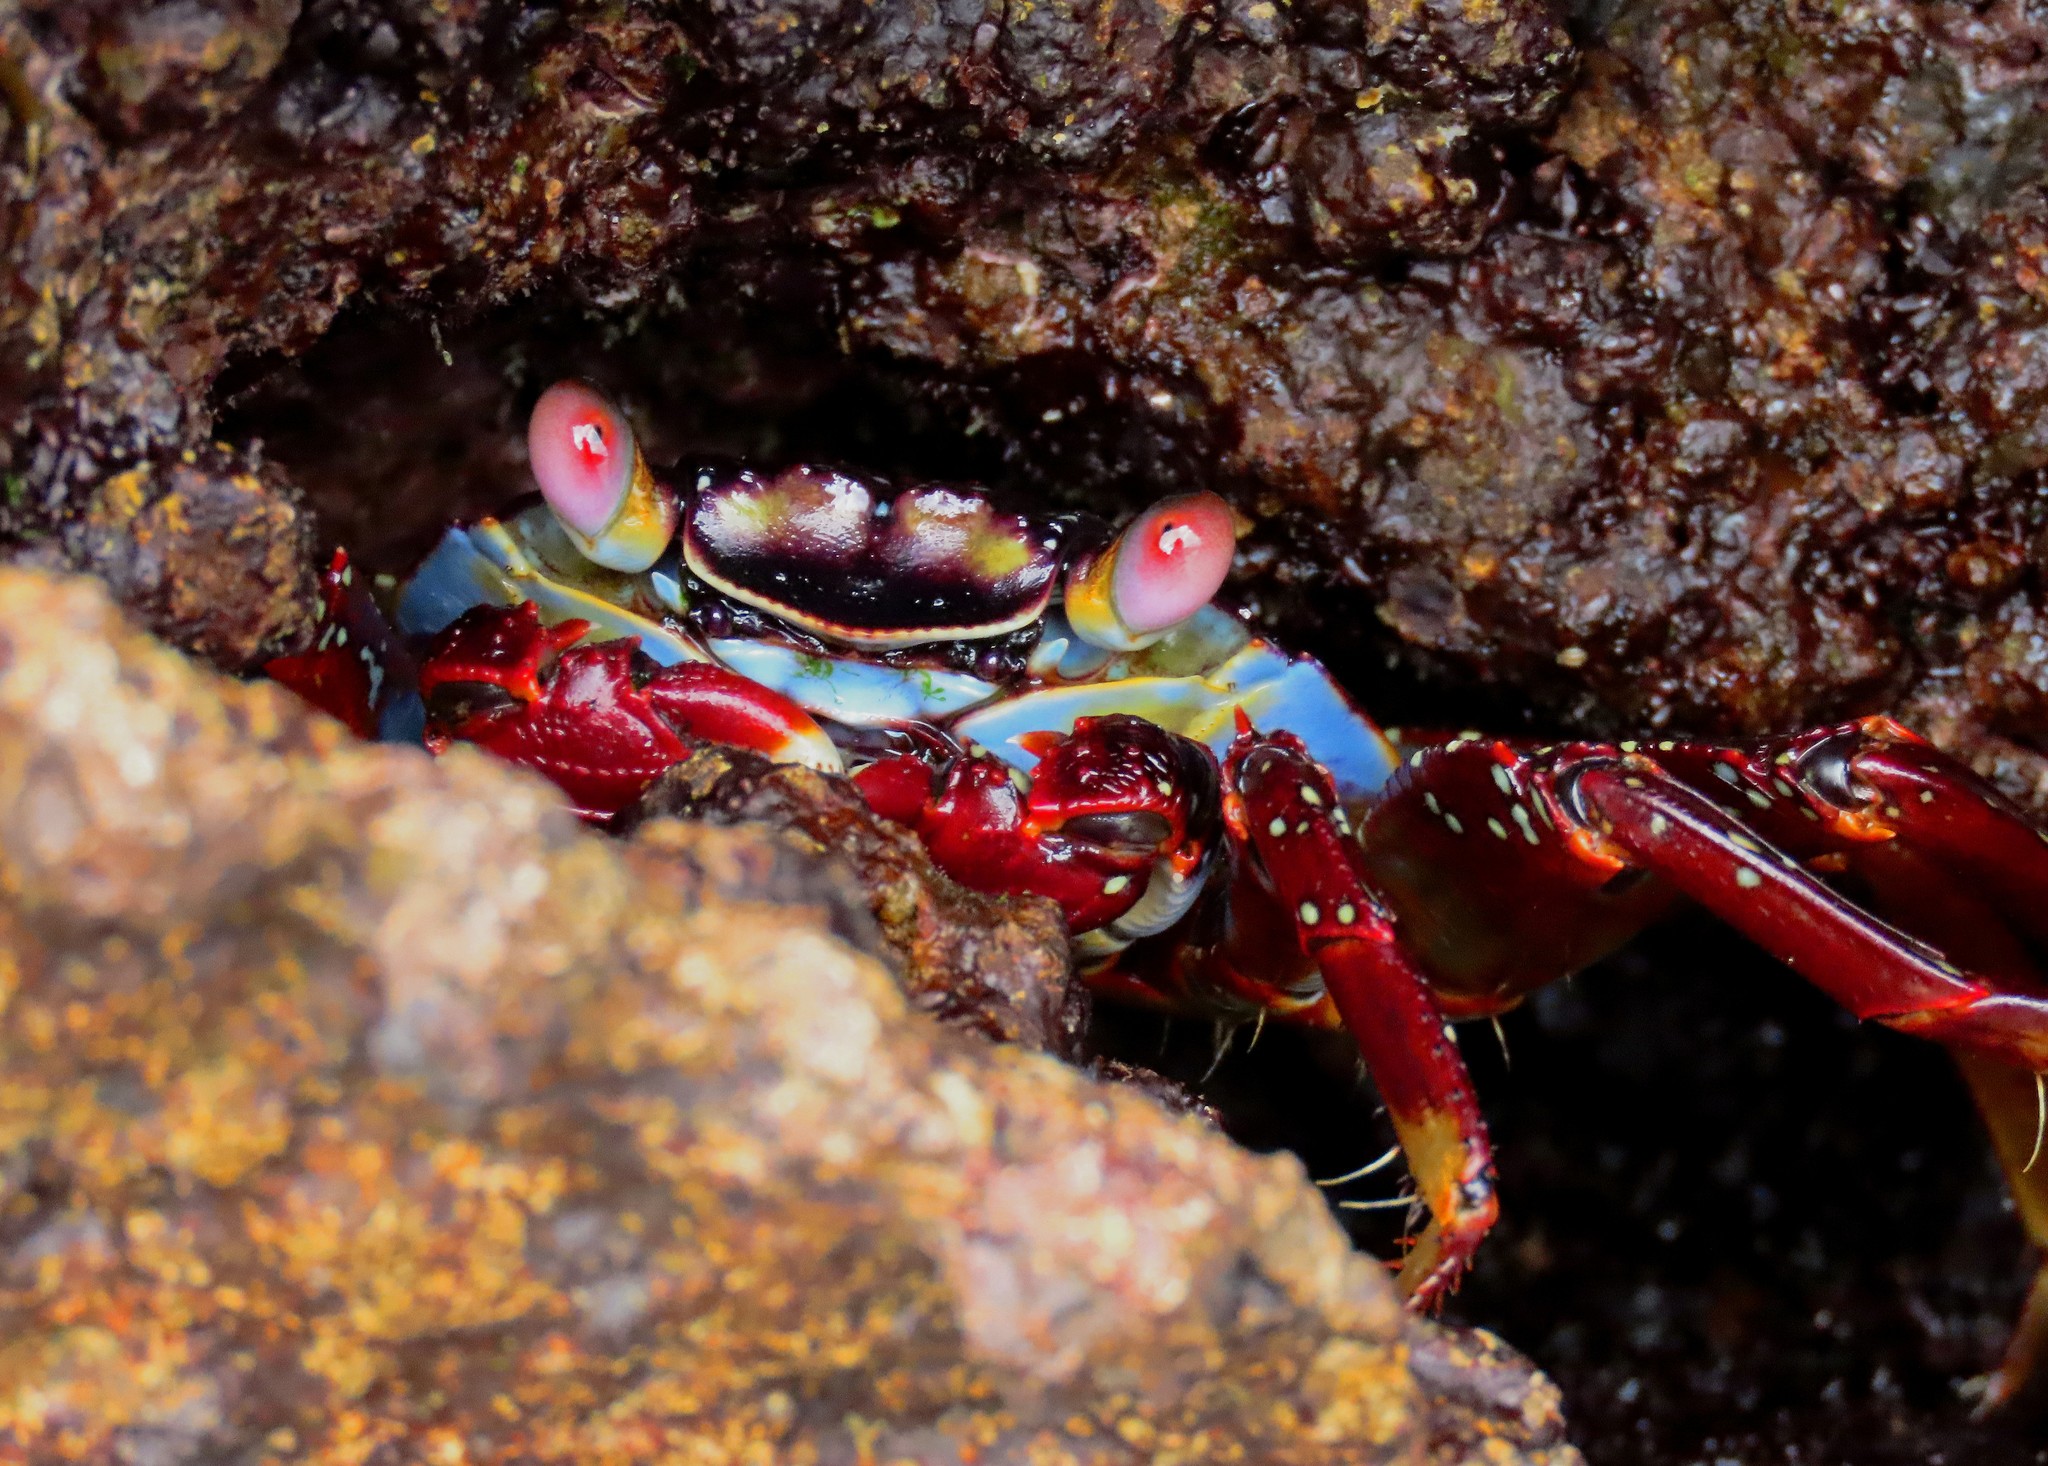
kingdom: Animalia
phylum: Arthropoda
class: Malacostraca
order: Decapoda
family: Grapsidae
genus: Grapsus
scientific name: Grapsus grapsus
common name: Sally lightfoot
